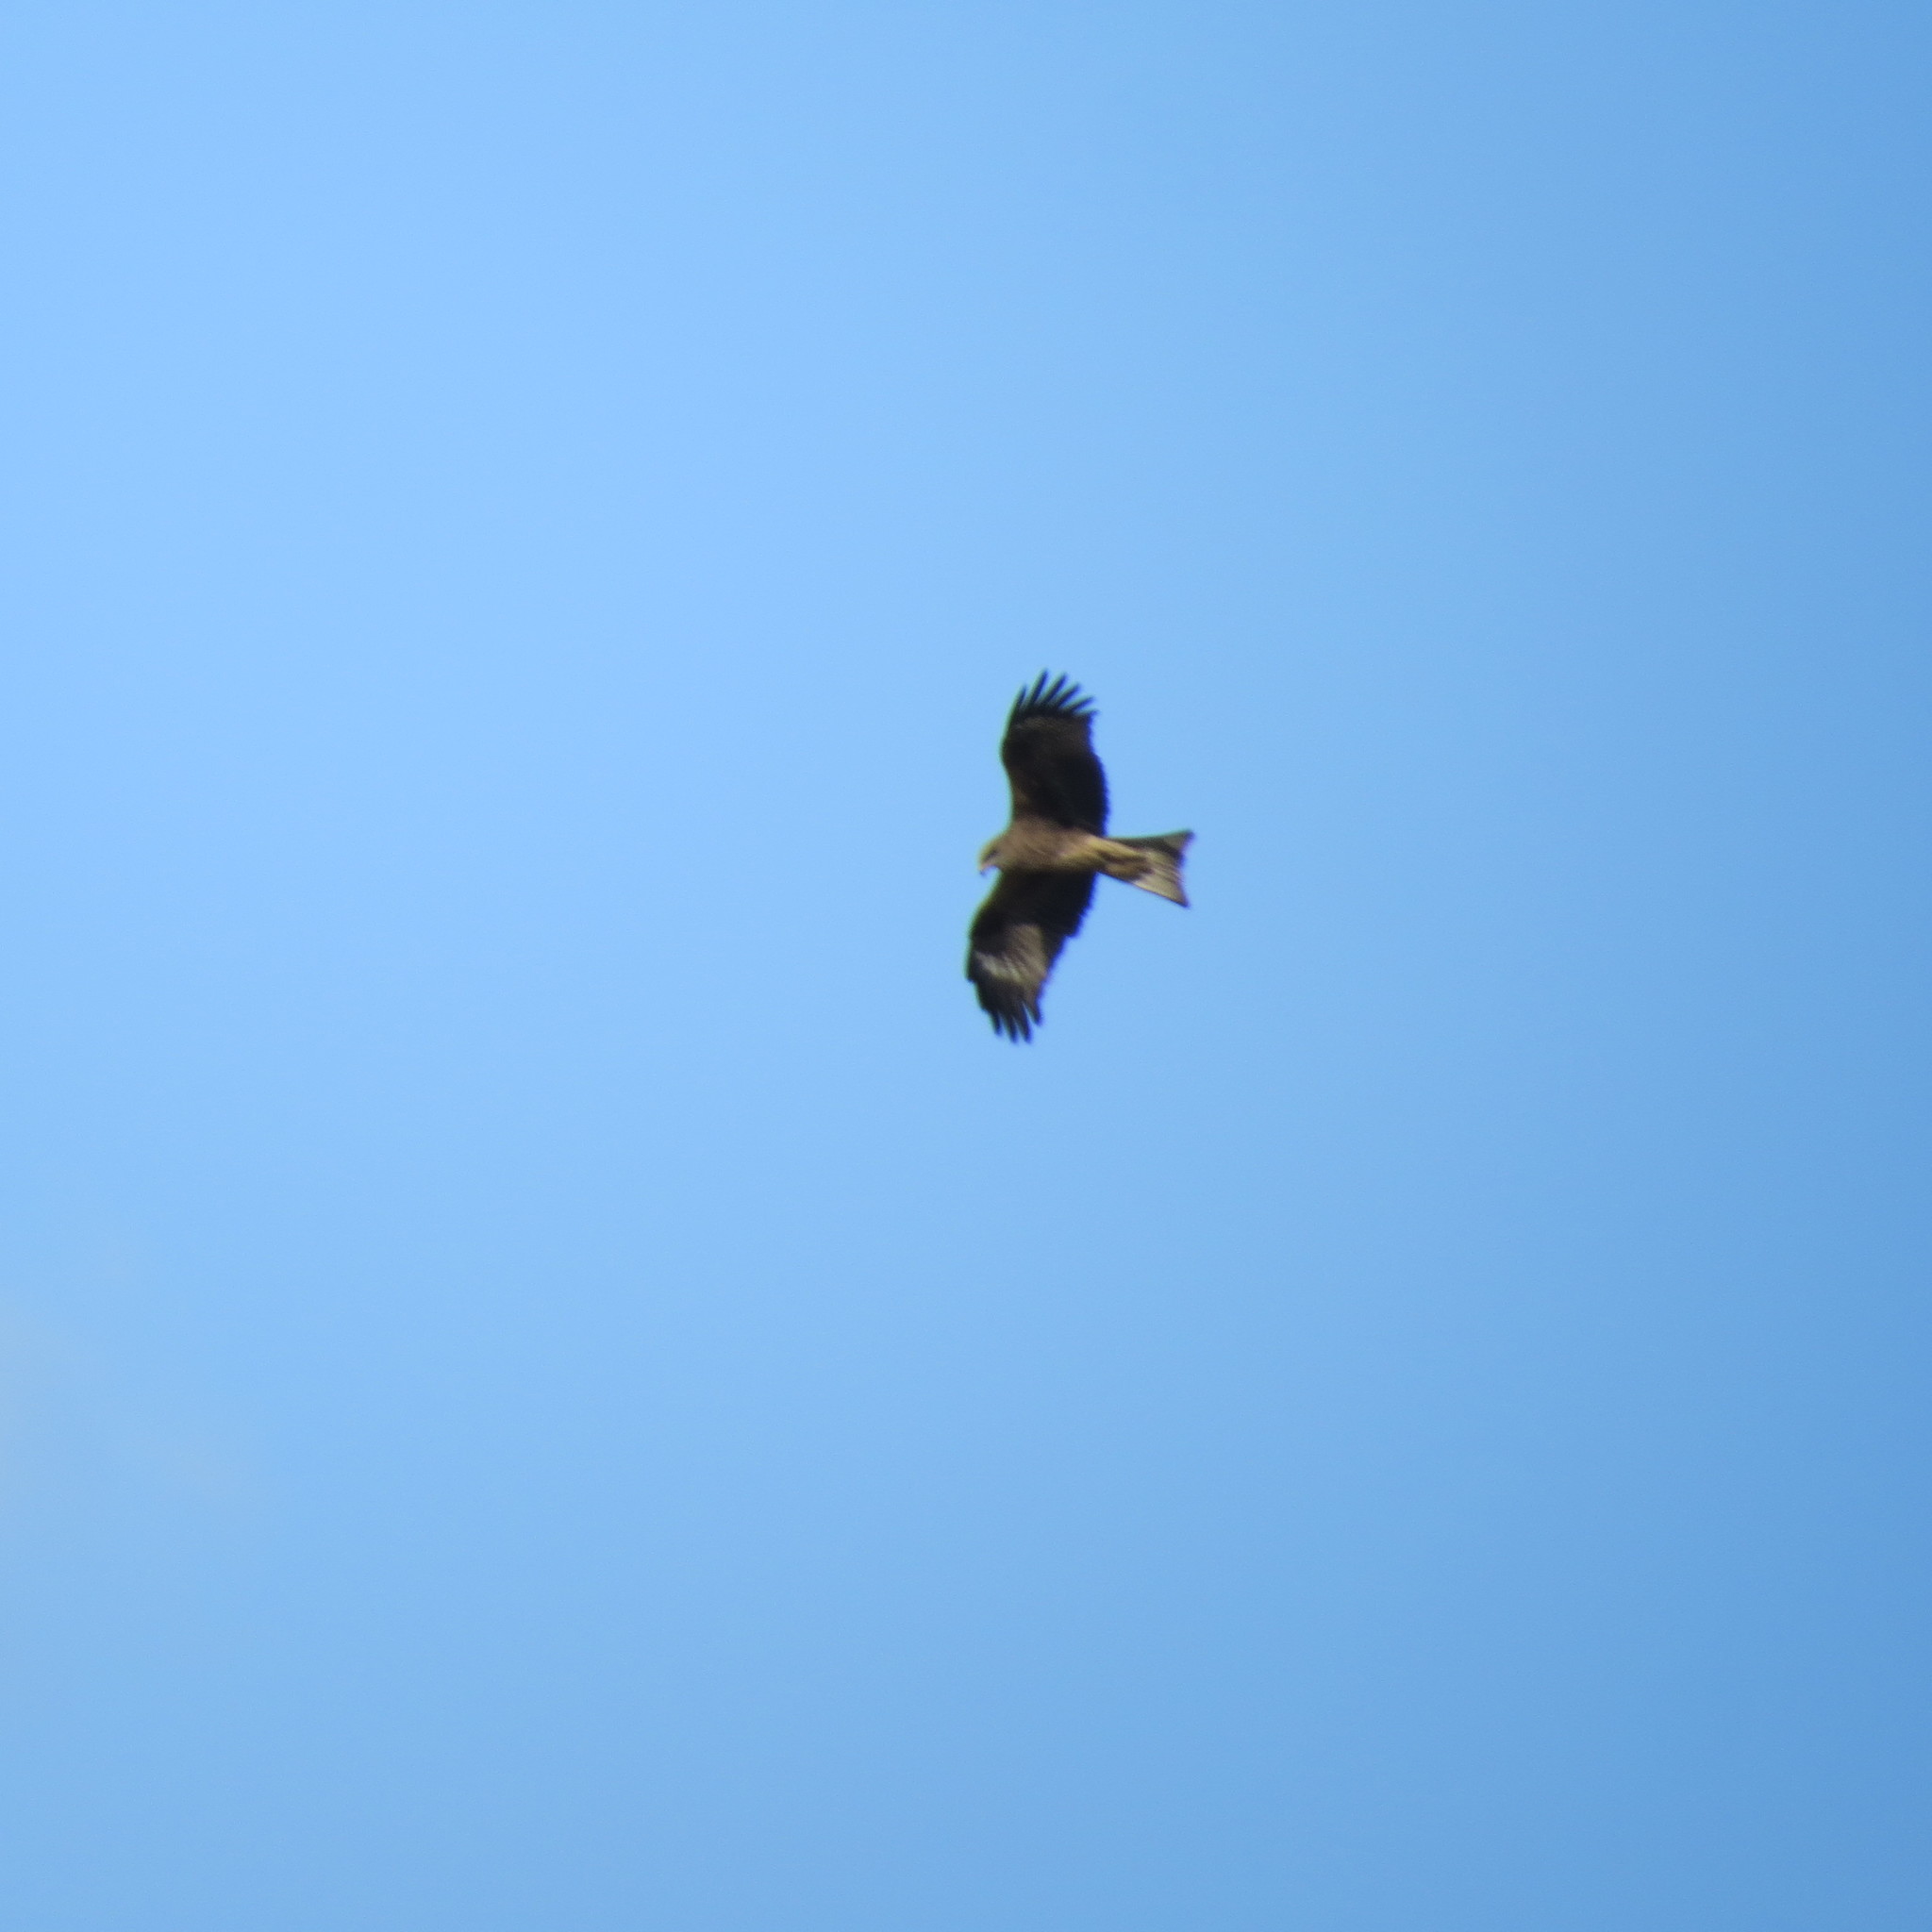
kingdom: Animalia
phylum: Chordata
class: Aves
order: Accipitriformes
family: Accipitridae
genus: Milvus
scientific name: Milvus migrans
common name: Black kite
